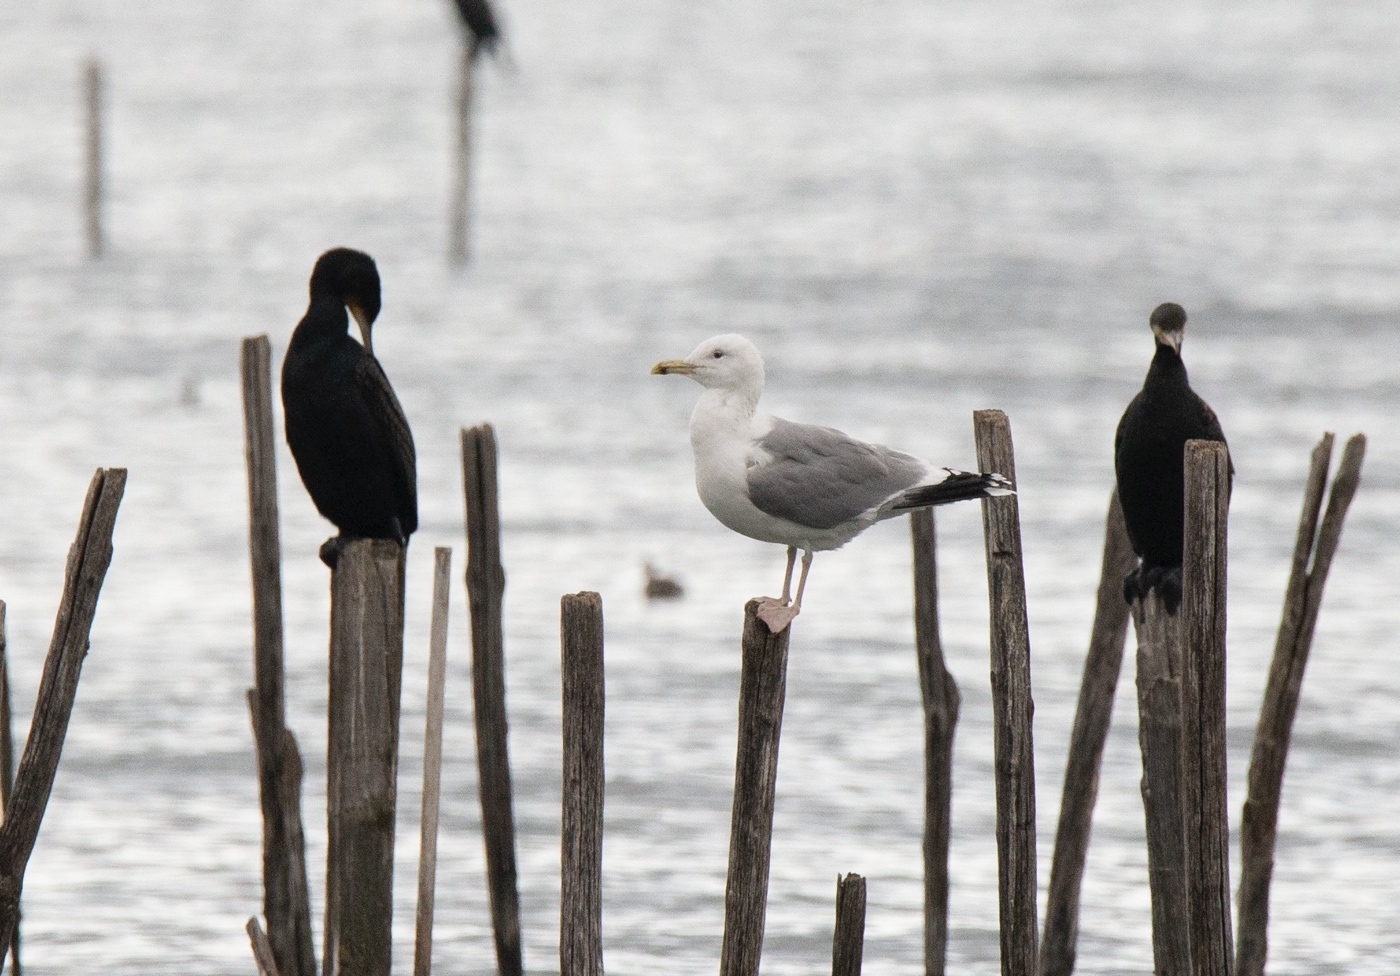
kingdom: Animalia
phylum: Chordata
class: Aves
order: Charadriiformes
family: Laridae
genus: Larus
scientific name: Larus cachinnans
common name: Caspian gull
